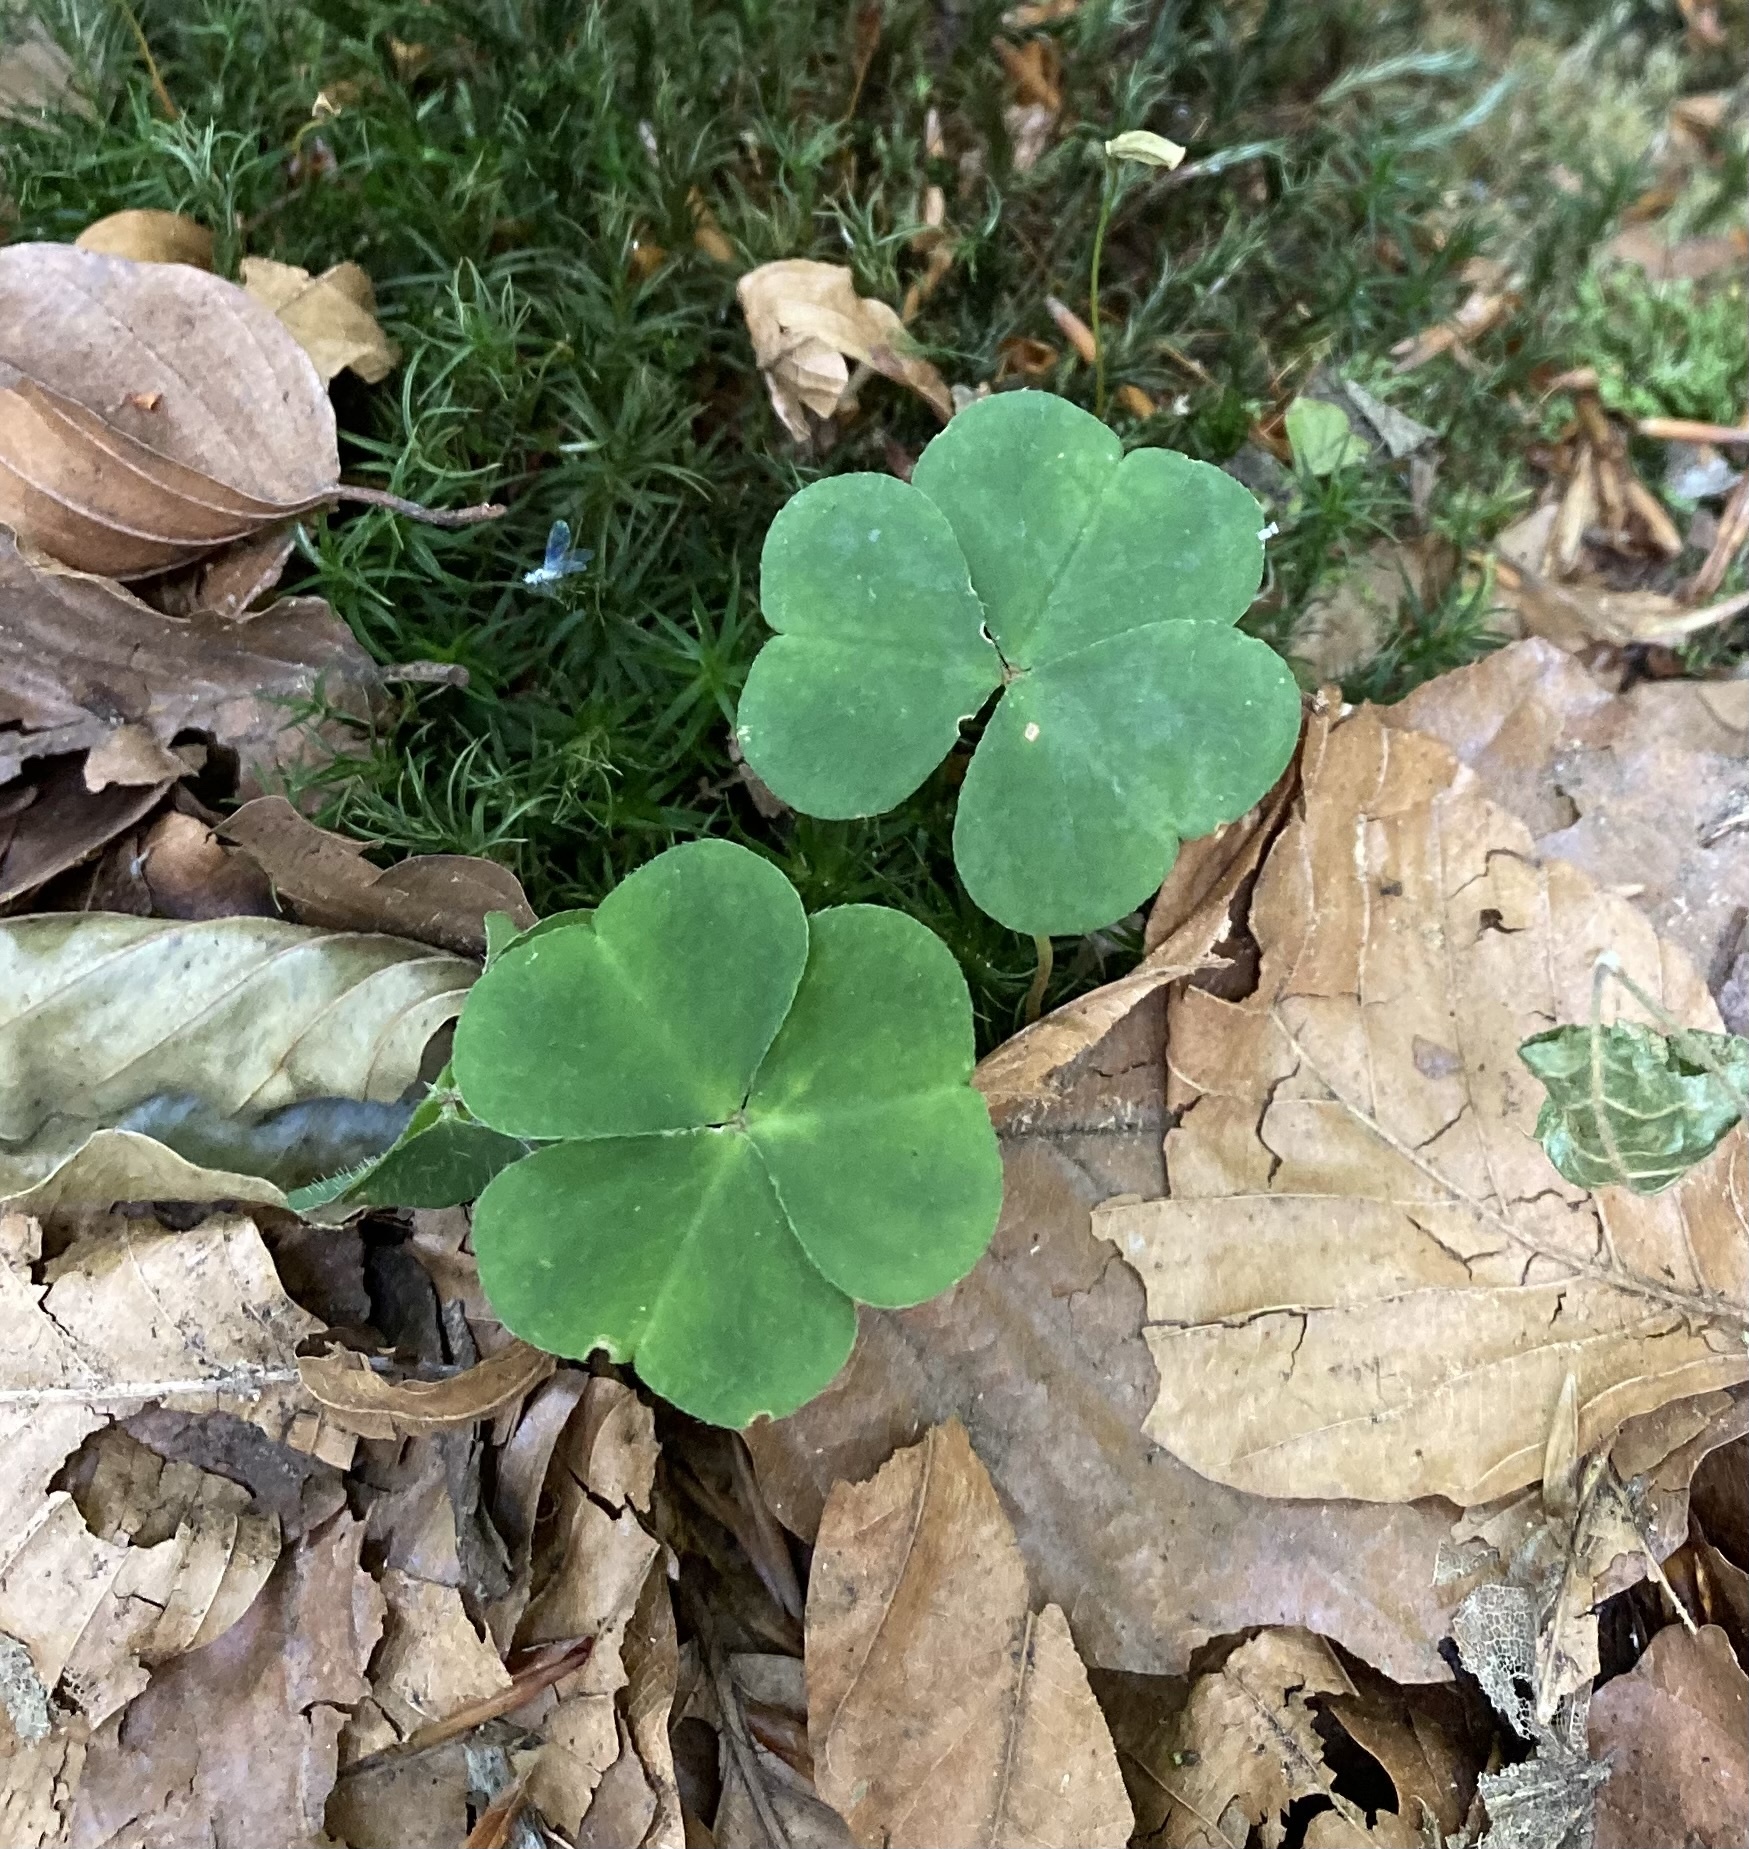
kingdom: Plantae
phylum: Tracheophyta
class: Magnoliopsida
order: Oxalidales
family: Oxalidaceae
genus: Oxalis
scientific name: Oxalis acetosella
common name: Wood-sorrel
